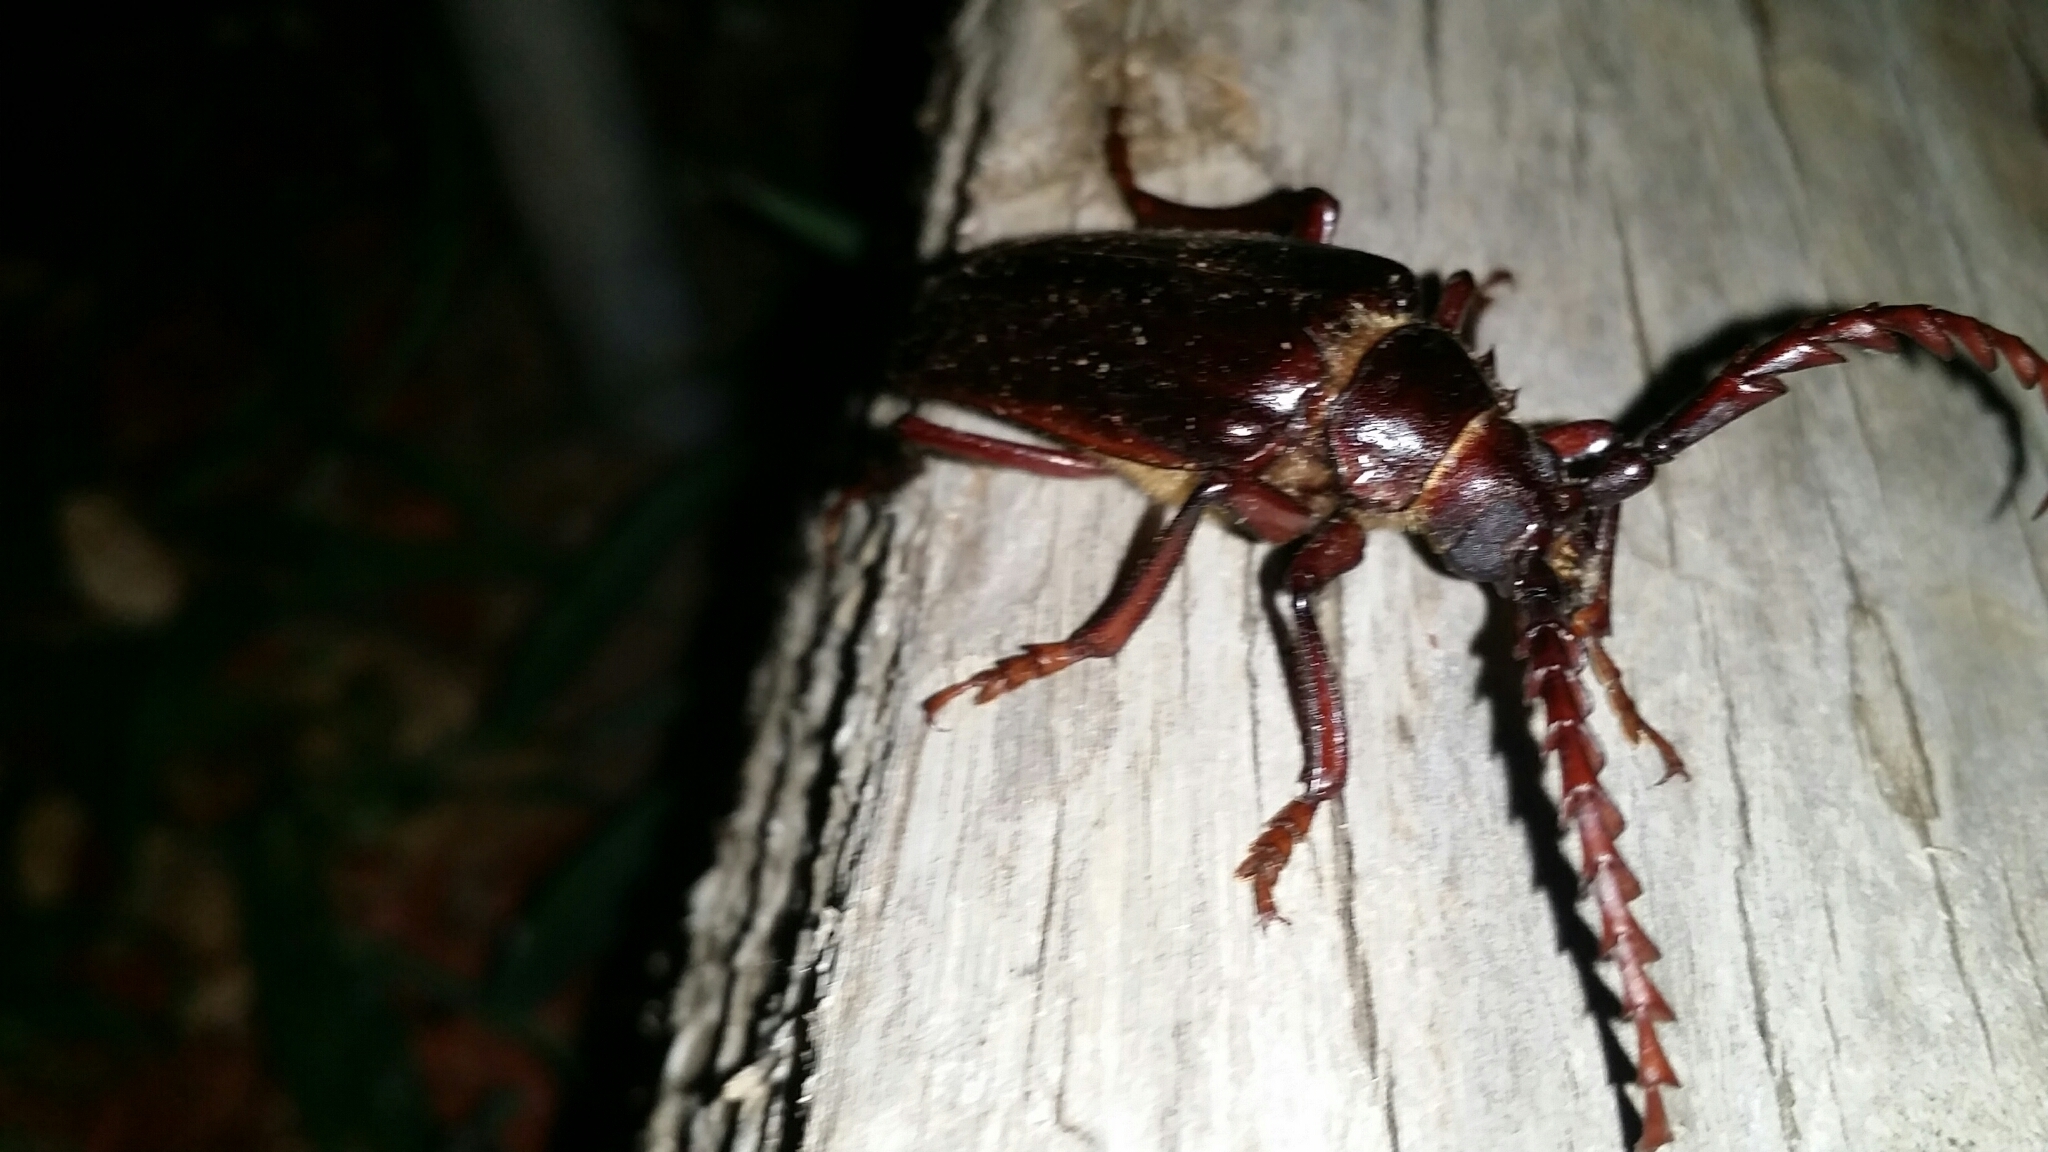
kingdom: Animalia
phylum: Arthropoda
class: Insecta
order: Coleoptera
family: Cerambycidae
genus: Prionus
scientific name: Prionus californicus
